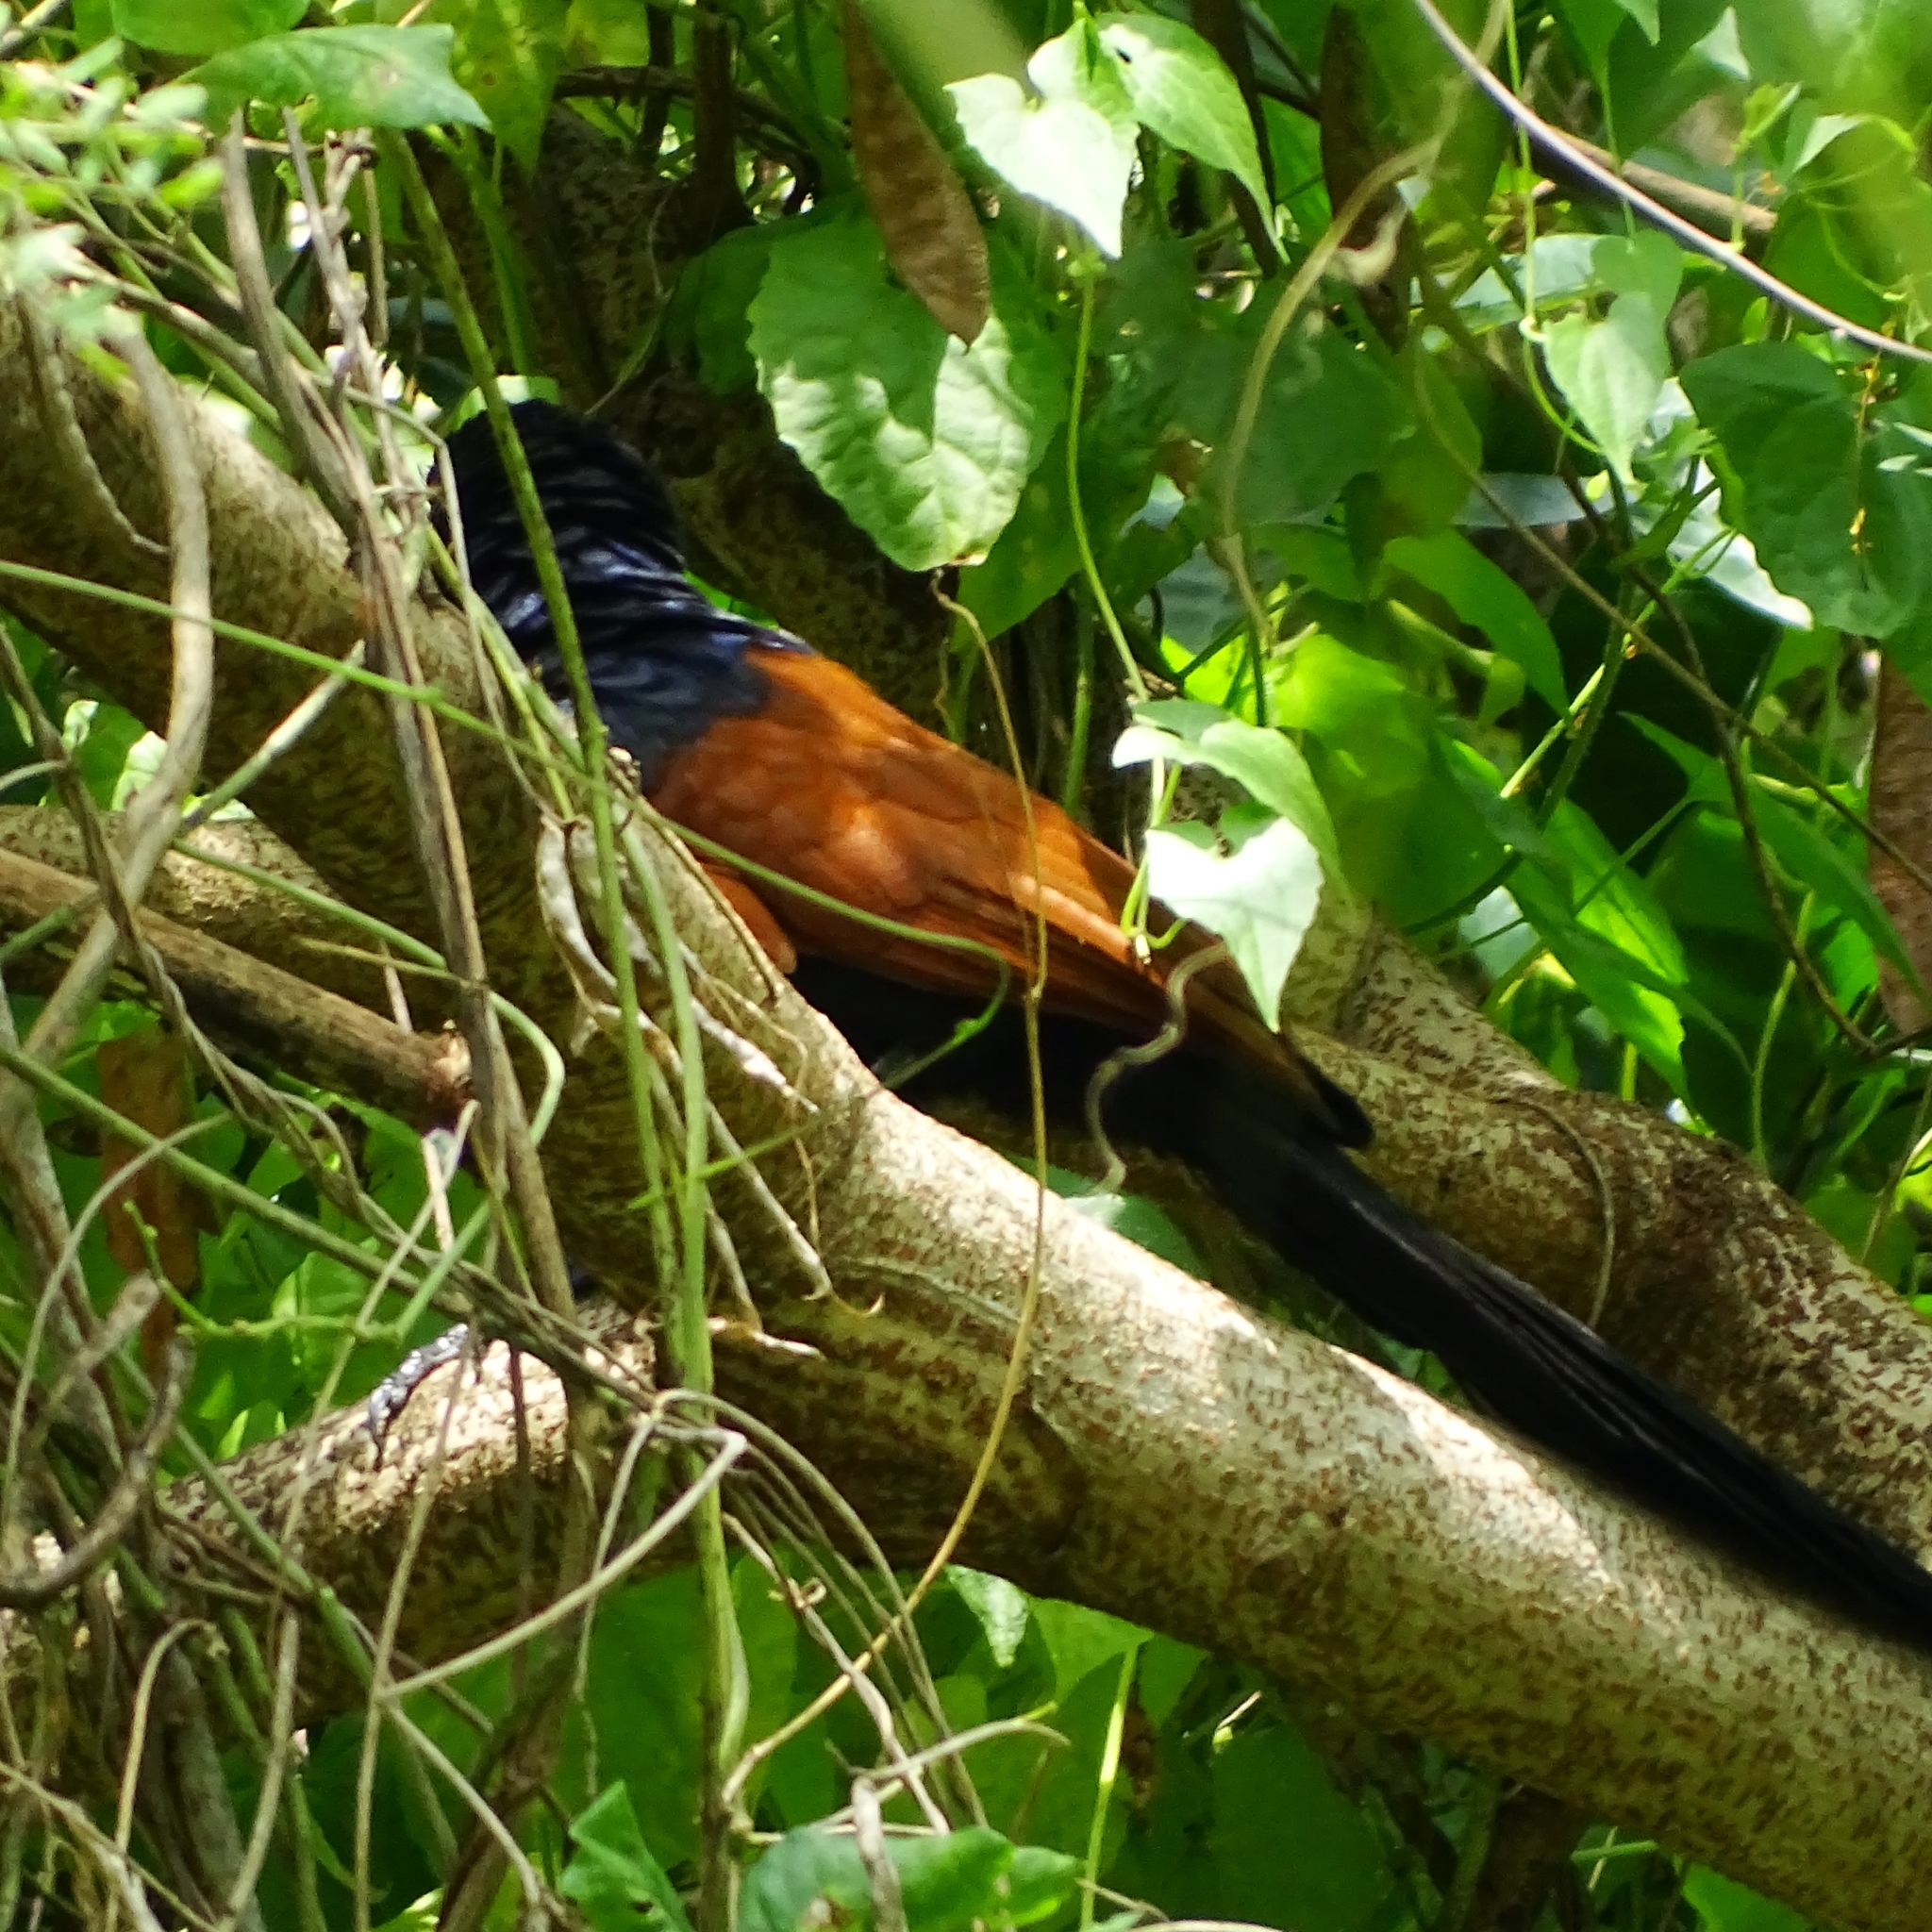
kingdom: Animalia
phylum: Chordata
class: Aves
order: Cuculiformes
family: Cuculidae
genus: Centropus
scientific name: Centropus sinensis
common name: Greater coucal
